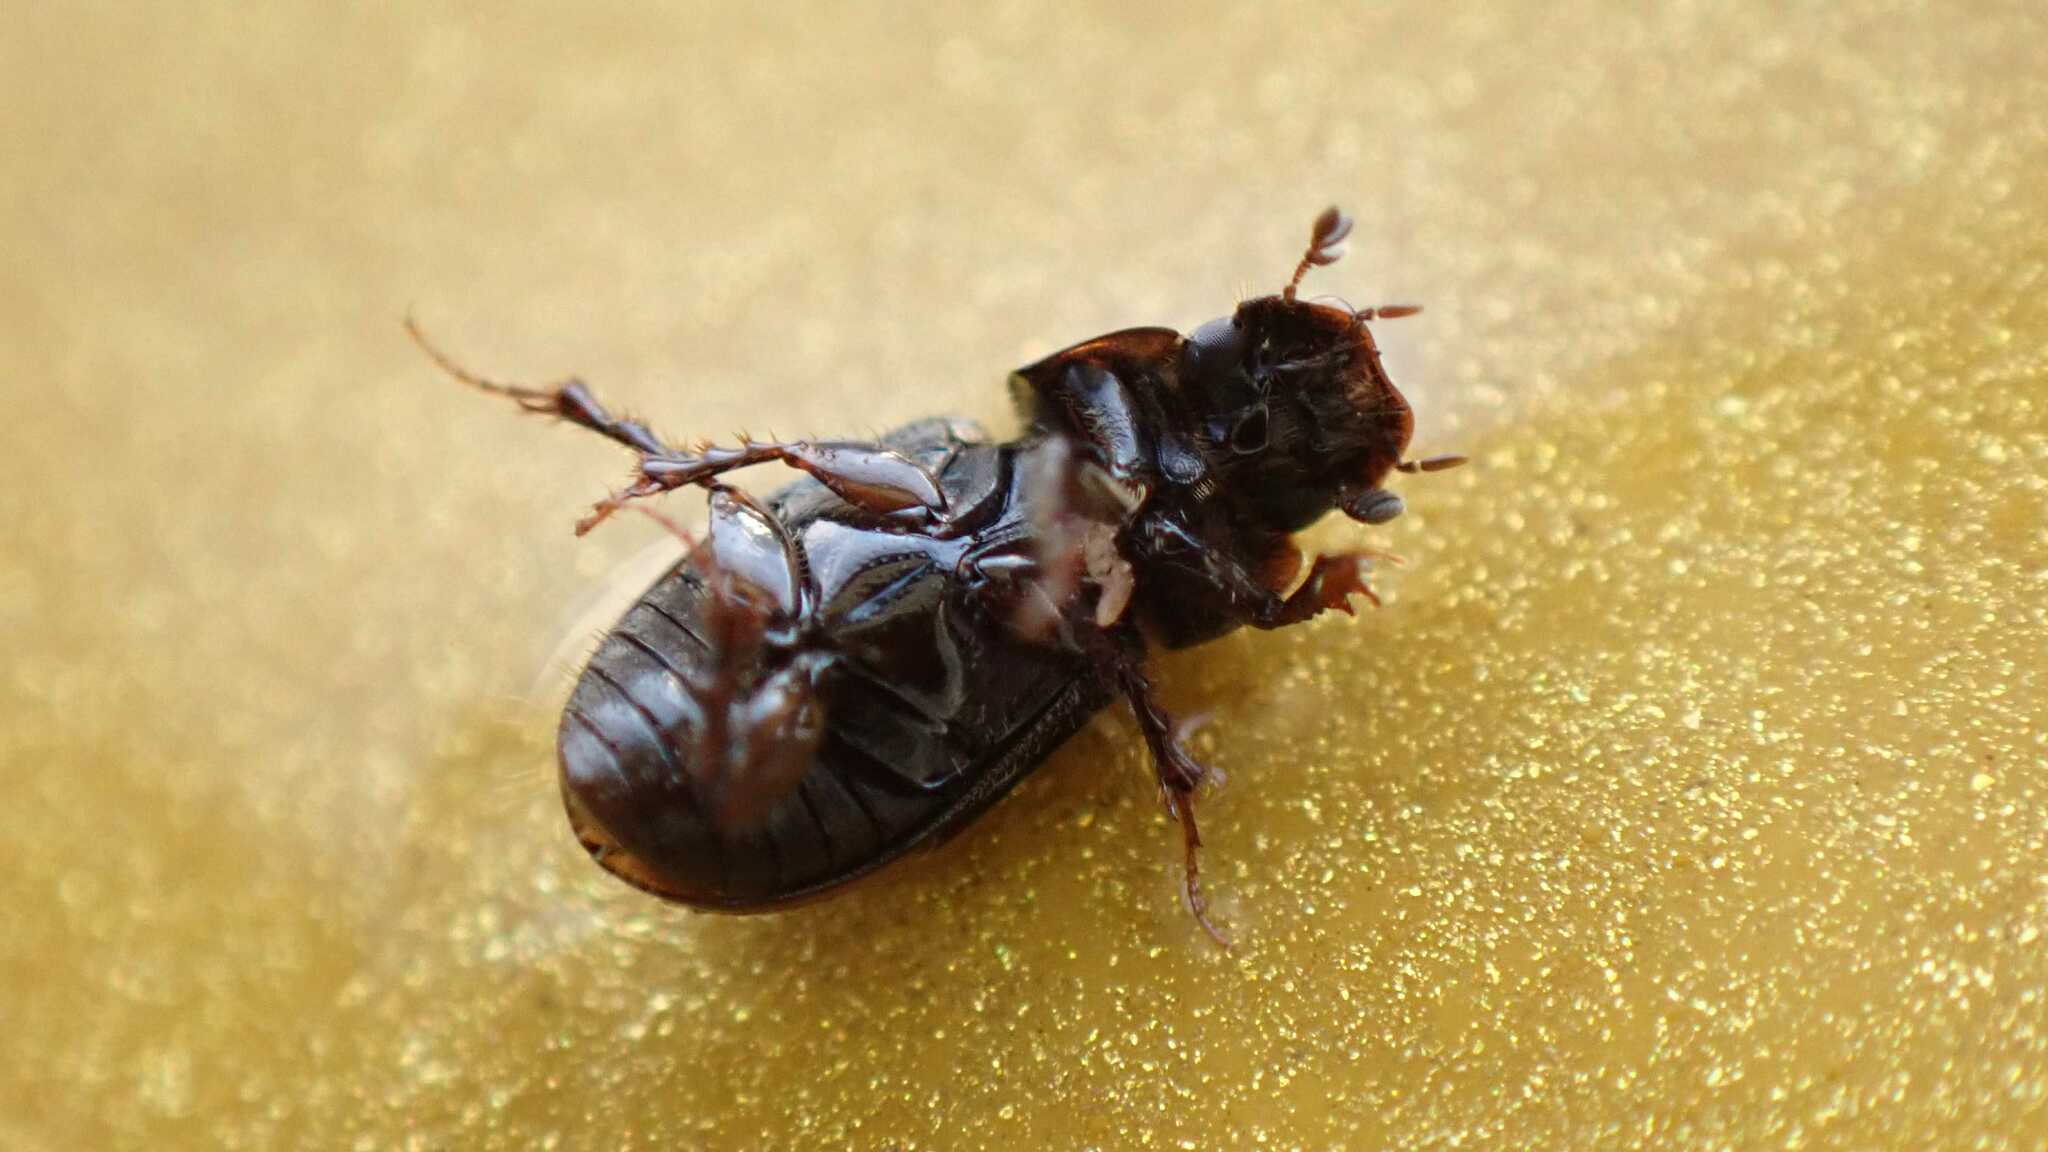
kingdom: Animalia
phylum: Arthropoda
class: Insecta
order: Coleoptera
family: Scarabaeidae
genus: Chilothorax
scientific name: Chilothorax distinctus
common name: Maculated dung beetle
